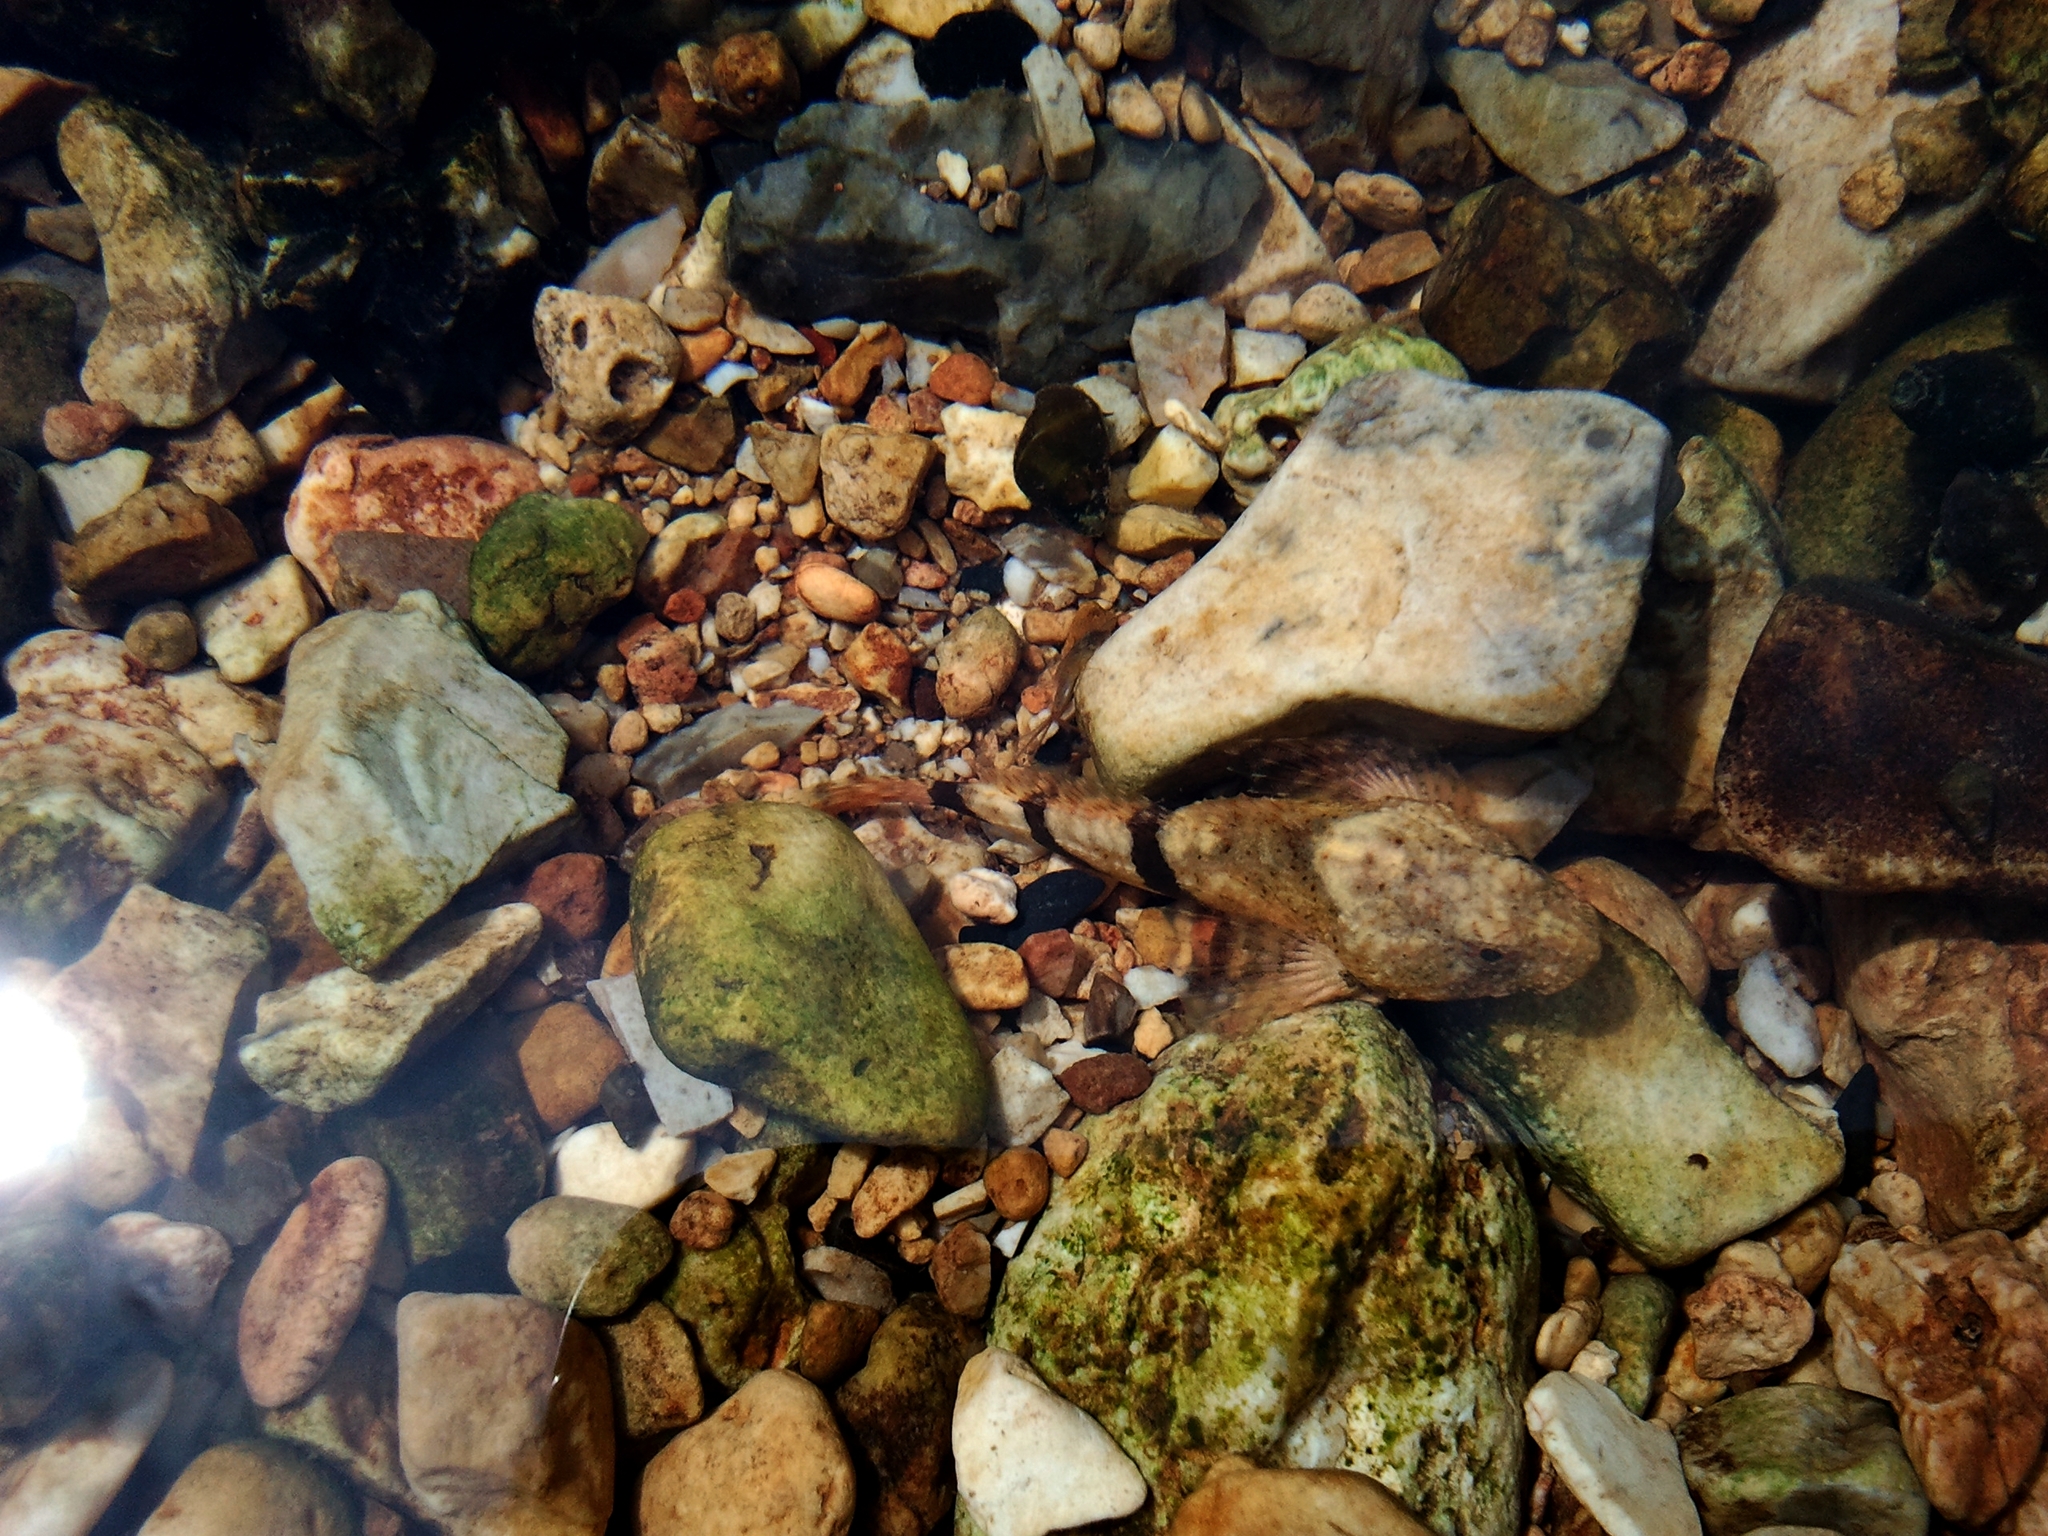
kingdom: Animalia
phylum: Chordata
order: Scorpaeniformes
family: Cottidae
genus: Cottus
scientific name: Cottus carolinae
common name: Banded sculpin
